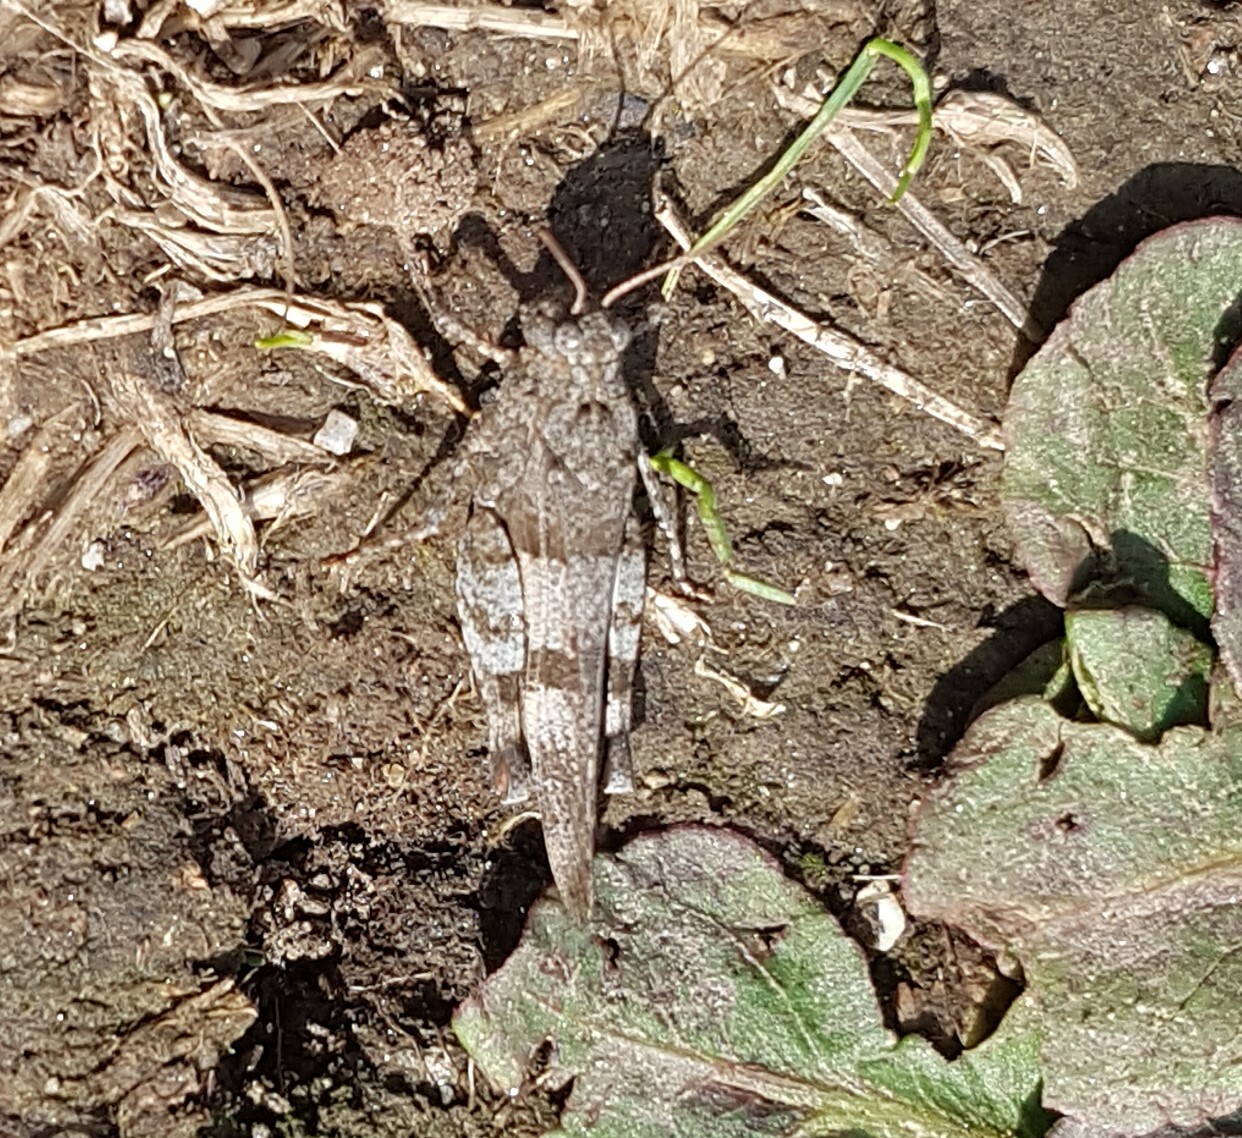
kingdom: Animalia
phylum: Arthropoda
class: Insecta
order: Orthoptera
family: Acrididae
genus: Oedipoda
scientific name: Oedipoda caerulescens
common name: Blue-winged grasshopper
